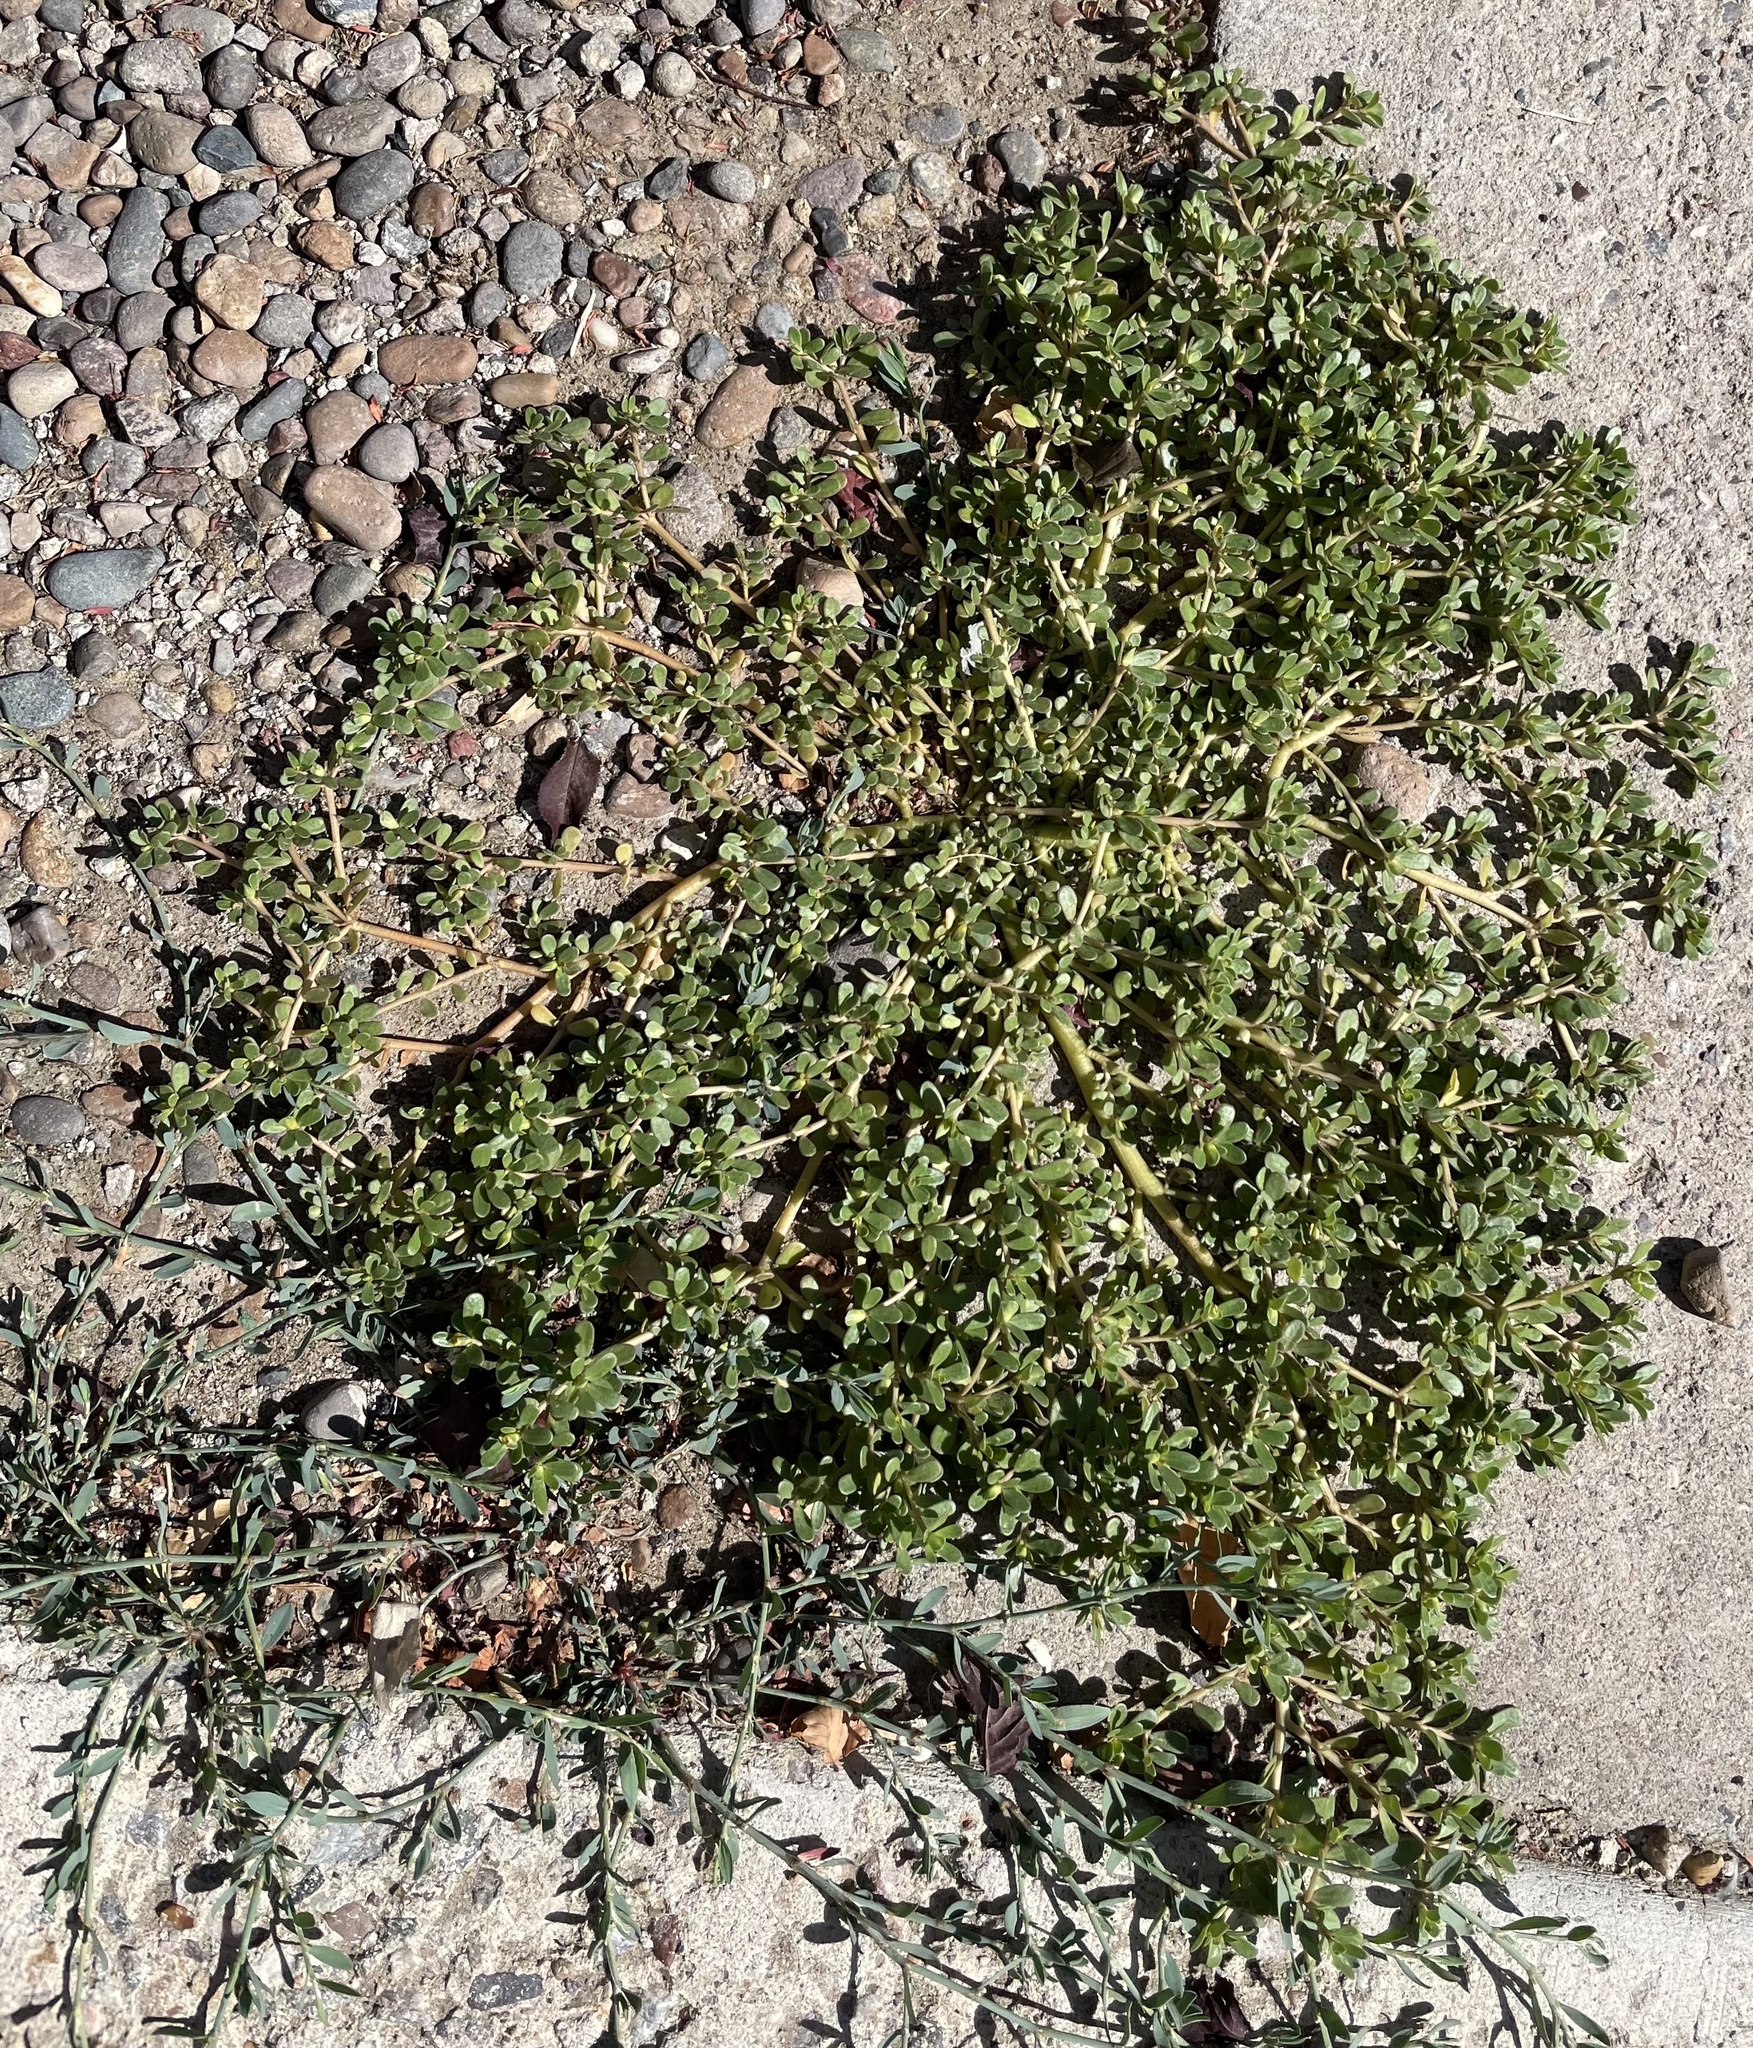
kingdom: Plantae
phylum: Tracheophyta
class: Magnoliopsida
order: Caryophyllales
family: Portulacaceae
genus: Portulaca
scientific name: Portulaca oleracea
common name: Common purslane
